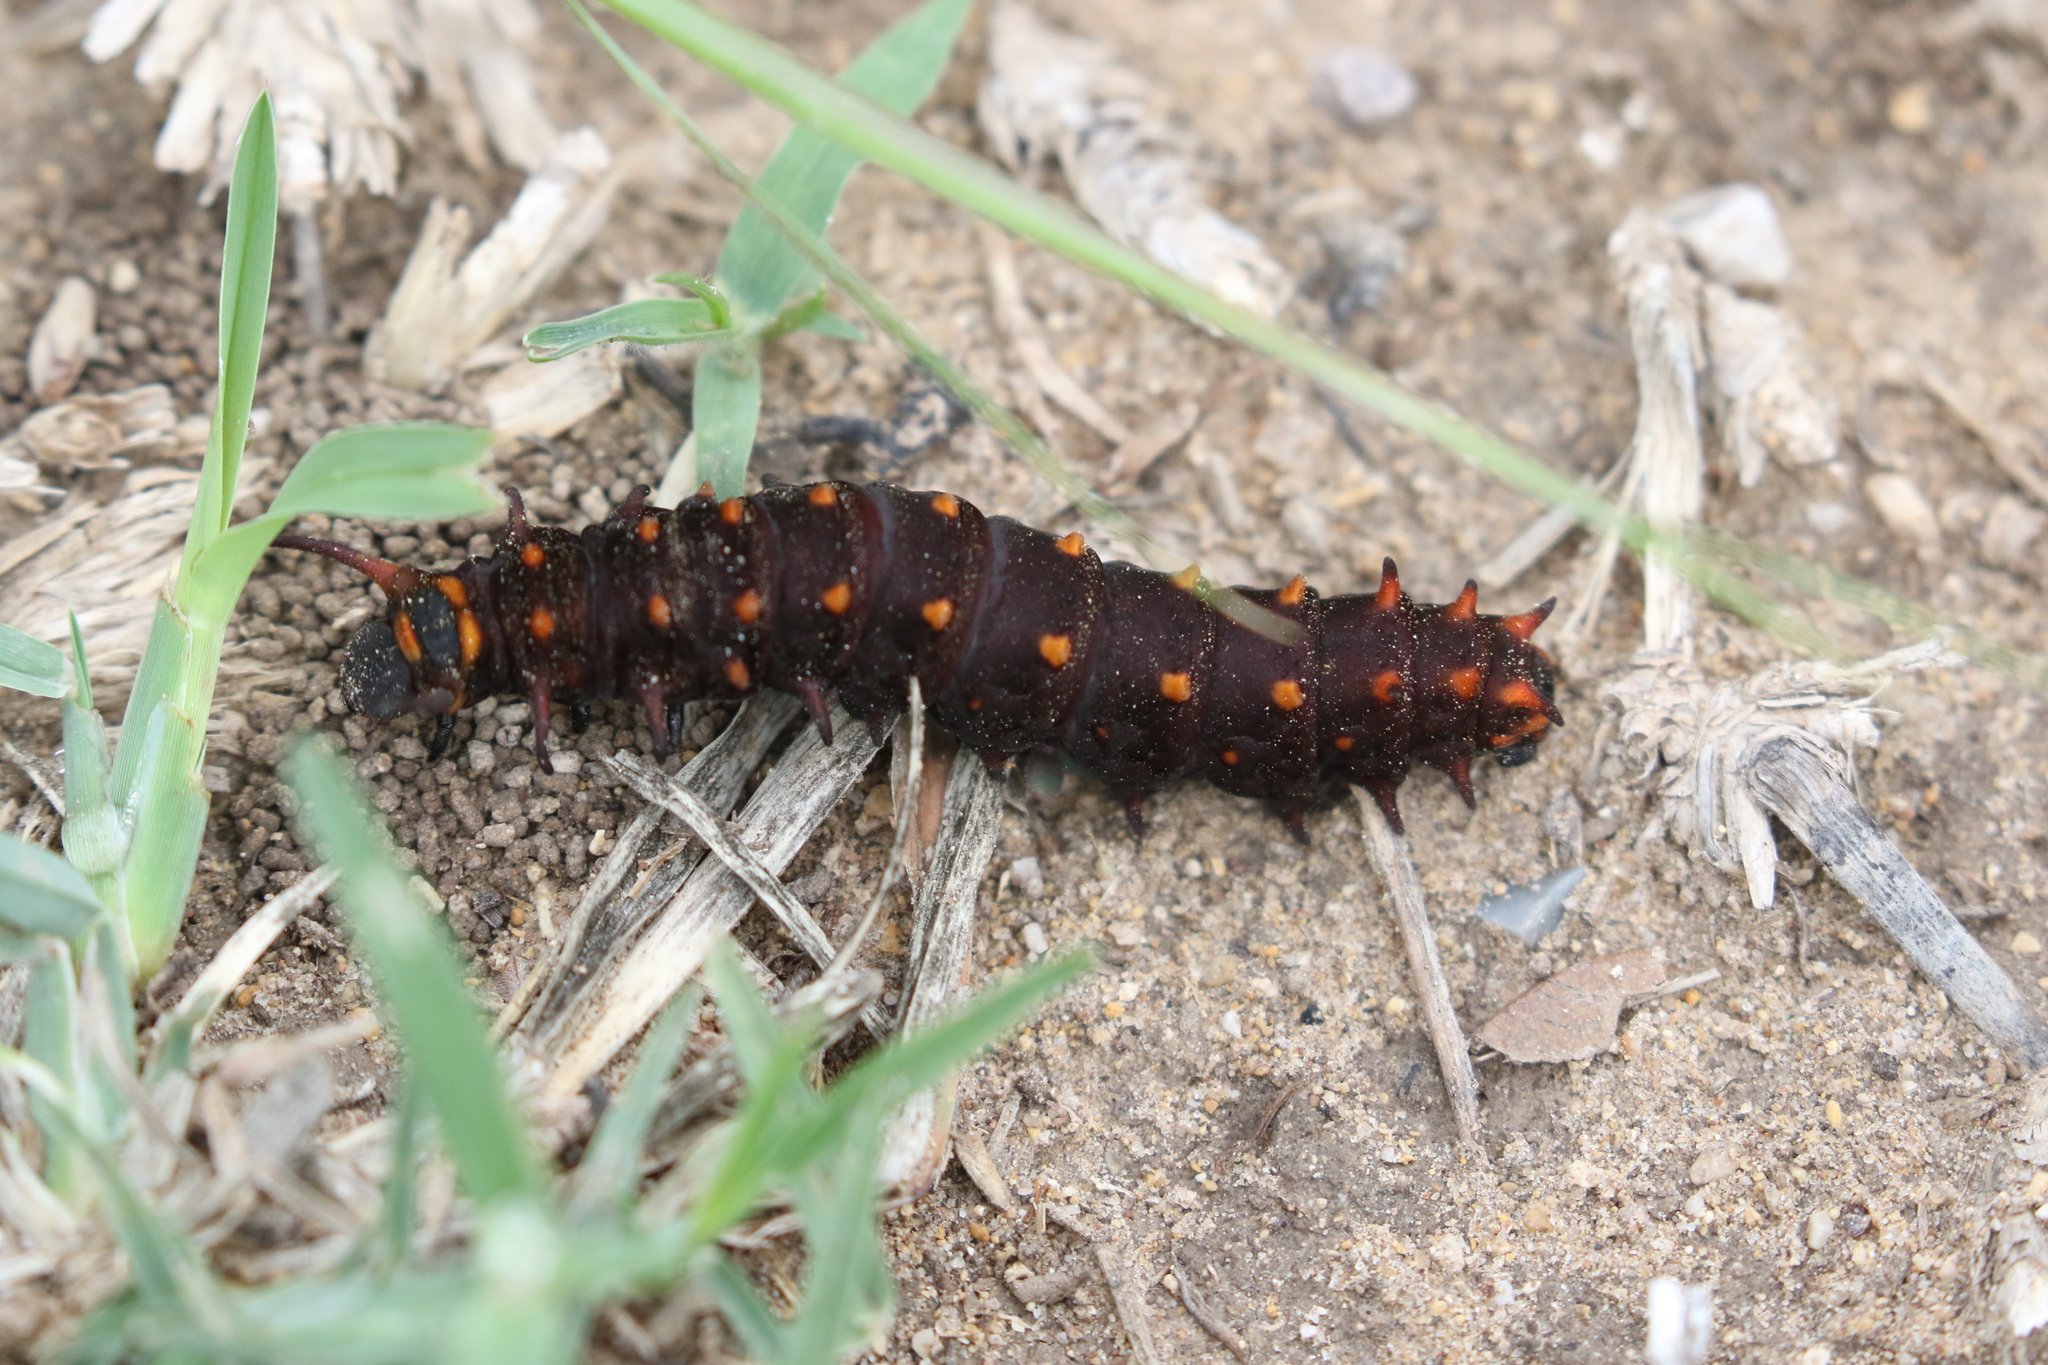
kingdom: Animalia
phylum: Arthropoda
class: Insecta
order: Lepidoptera
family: Papilionidae
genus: Battus
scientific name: Battus philenor
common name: Pipevine swallowtail
